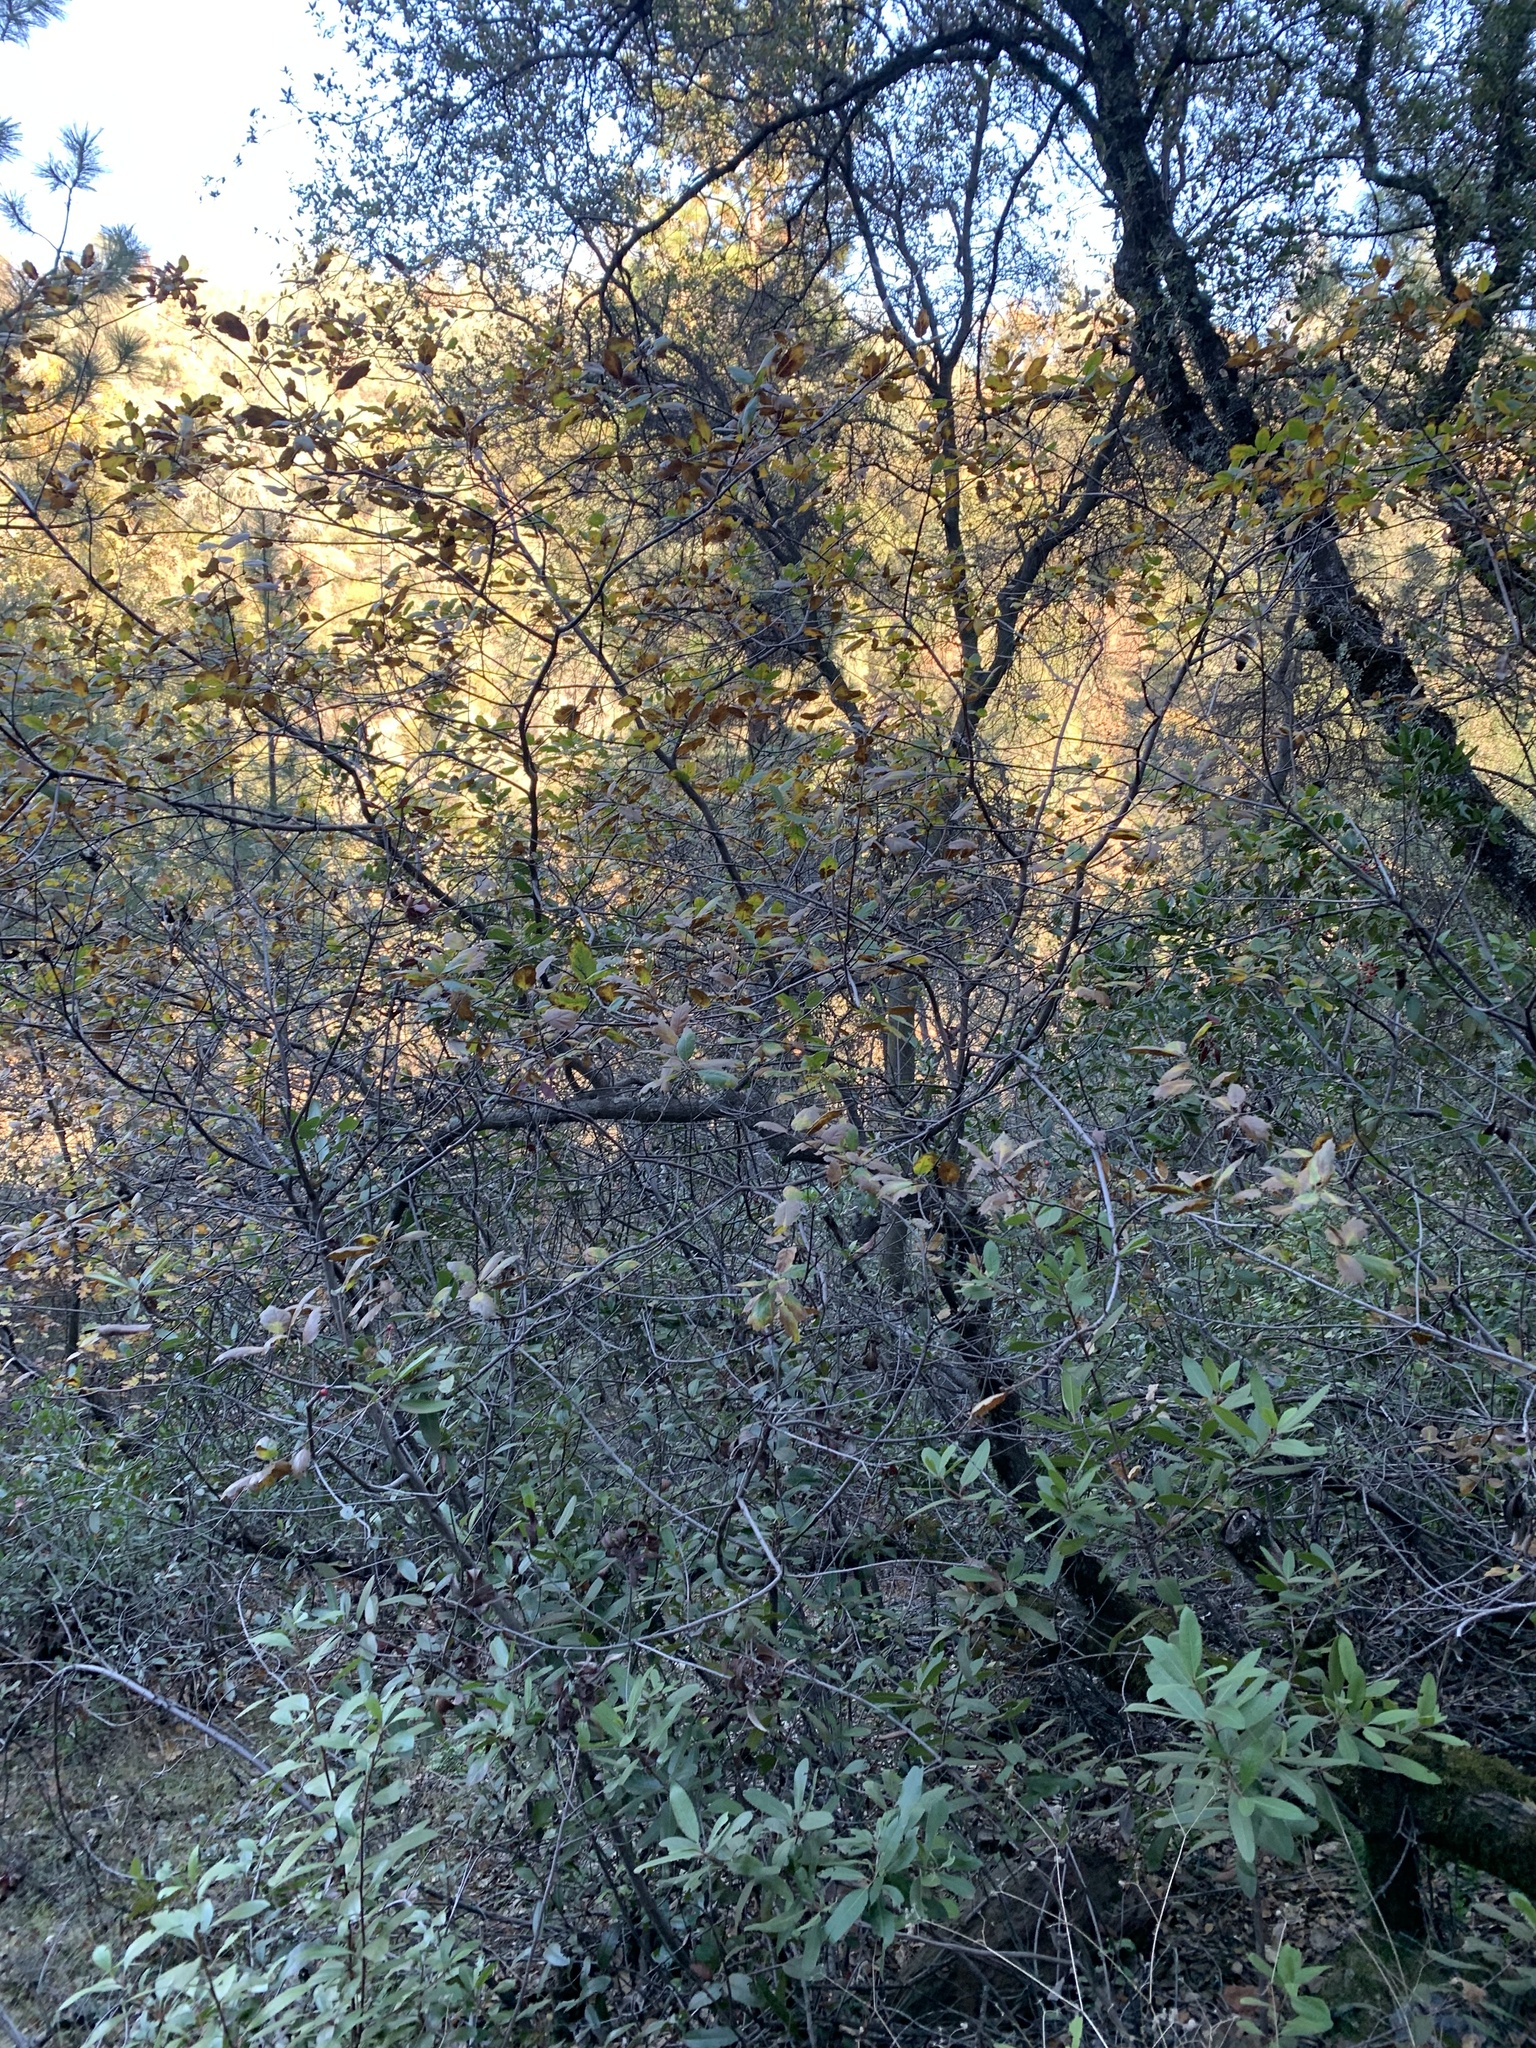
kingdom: Plantae
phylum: Tracheophyta
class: Magnoliopsida
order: Fagales
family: Fagaceae
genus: Quercus
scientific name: Quercus morehus
